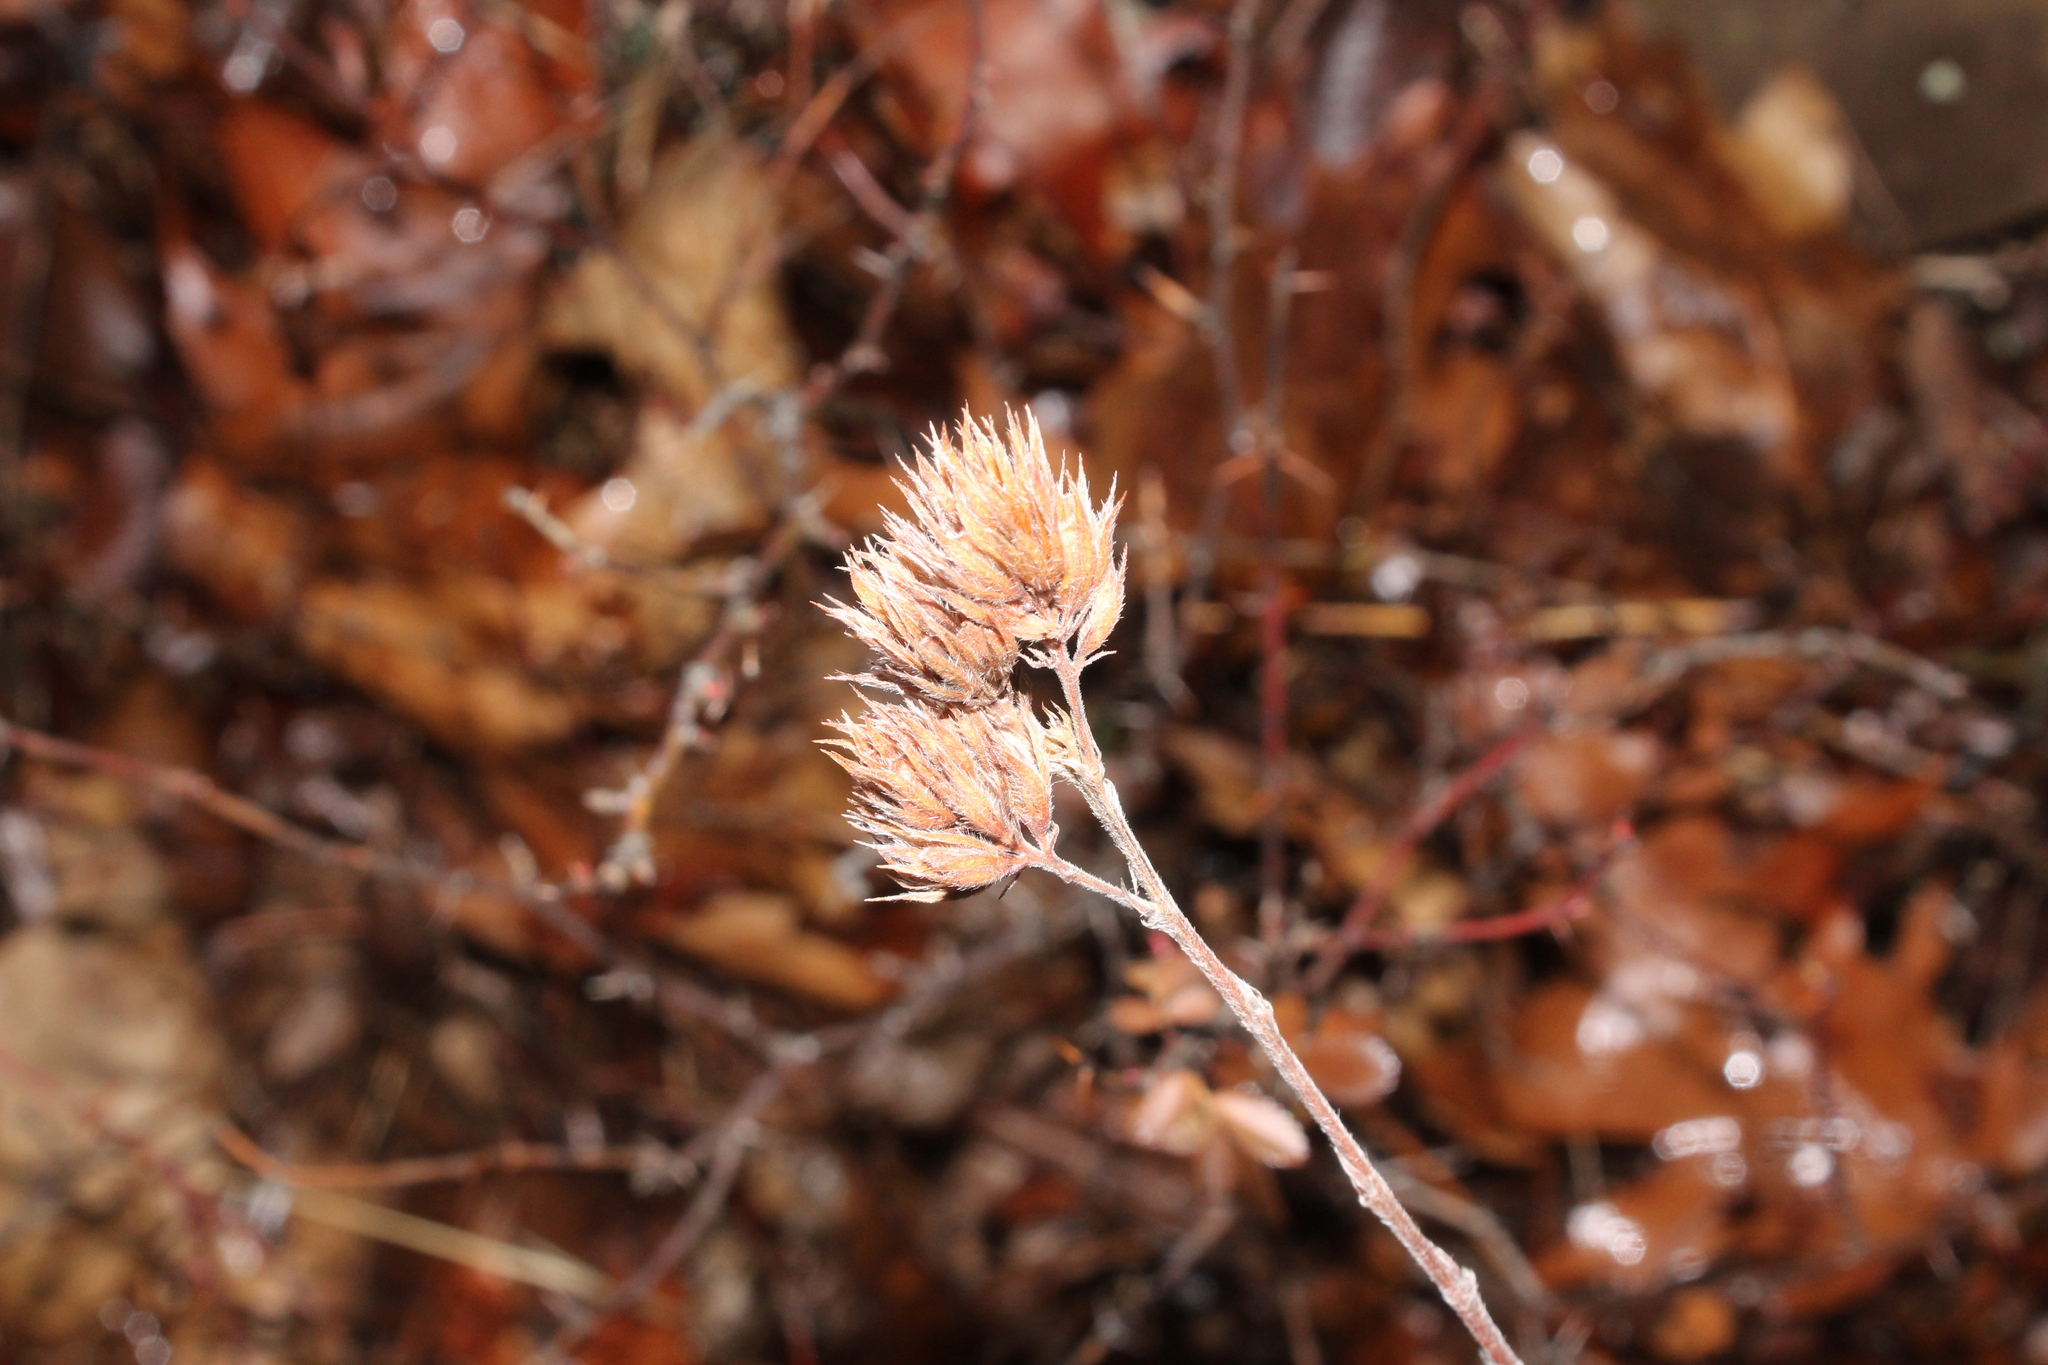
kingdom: Plantae
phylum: Tracheophyta
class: Magnoliopsida
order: Fabales
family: Fabaceae
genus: Lespedeza
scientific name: Lespedeza capitata
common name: Dusty clover
